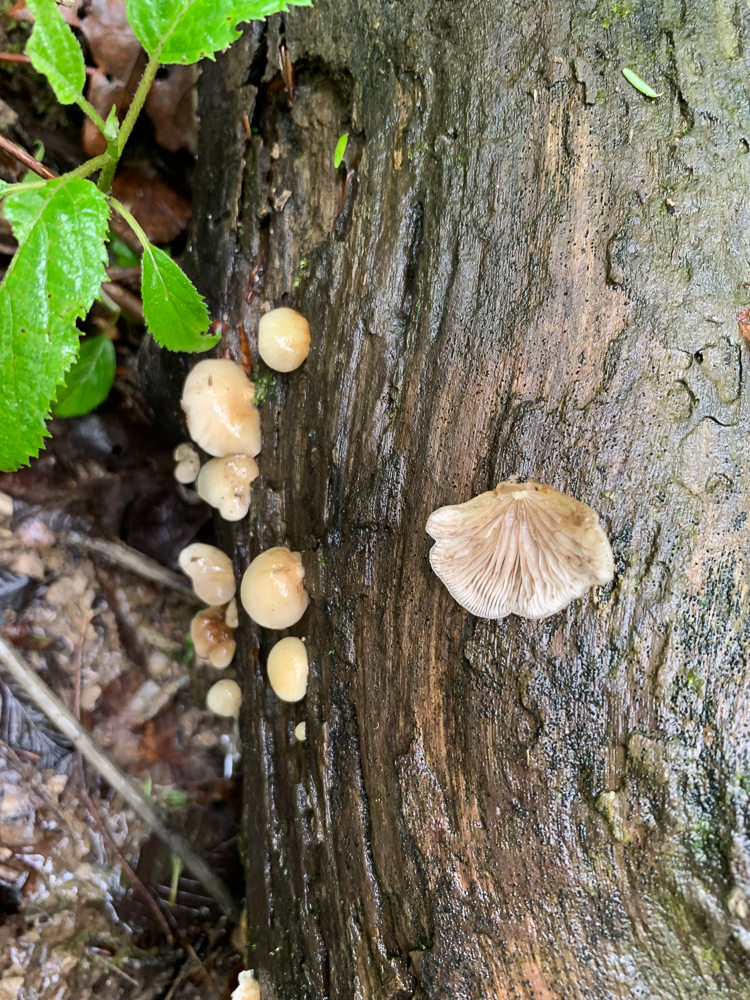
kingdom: Fungi
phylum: Basidiomycota
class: Agaricomycetes
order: Agaricales
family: Crepidotaceae
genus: Crepidotus
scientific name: Crepidotus applanatus
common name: Flat crep
